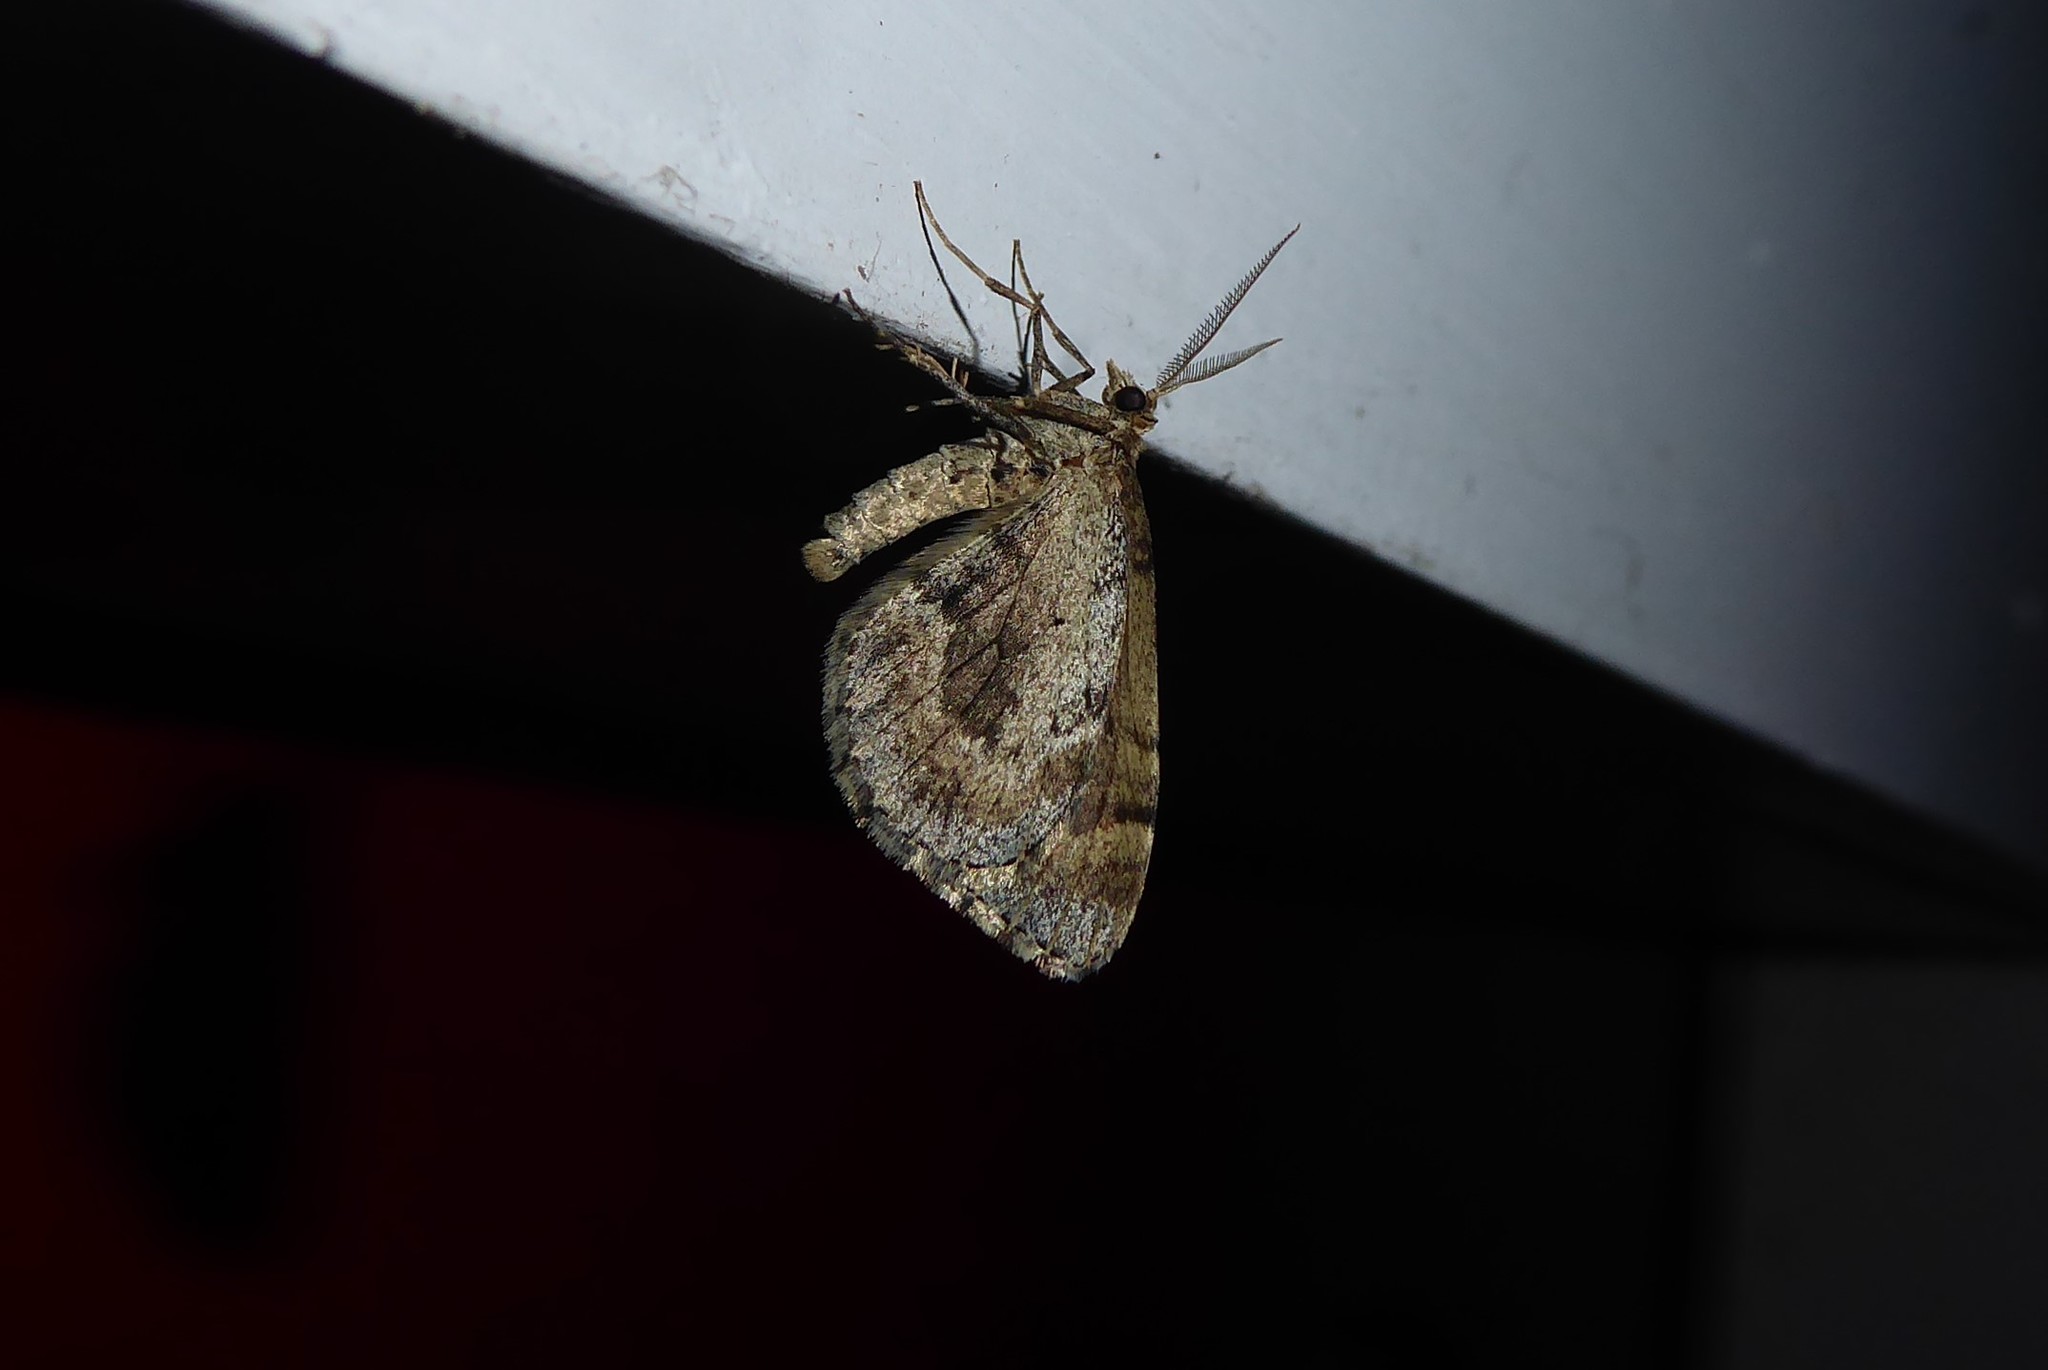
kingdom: Animalia
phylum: Arthropoda
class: Insecta
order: Lepidoptera
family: Geometridae
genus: Asaphodes
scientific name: Asaphodes aegrota
